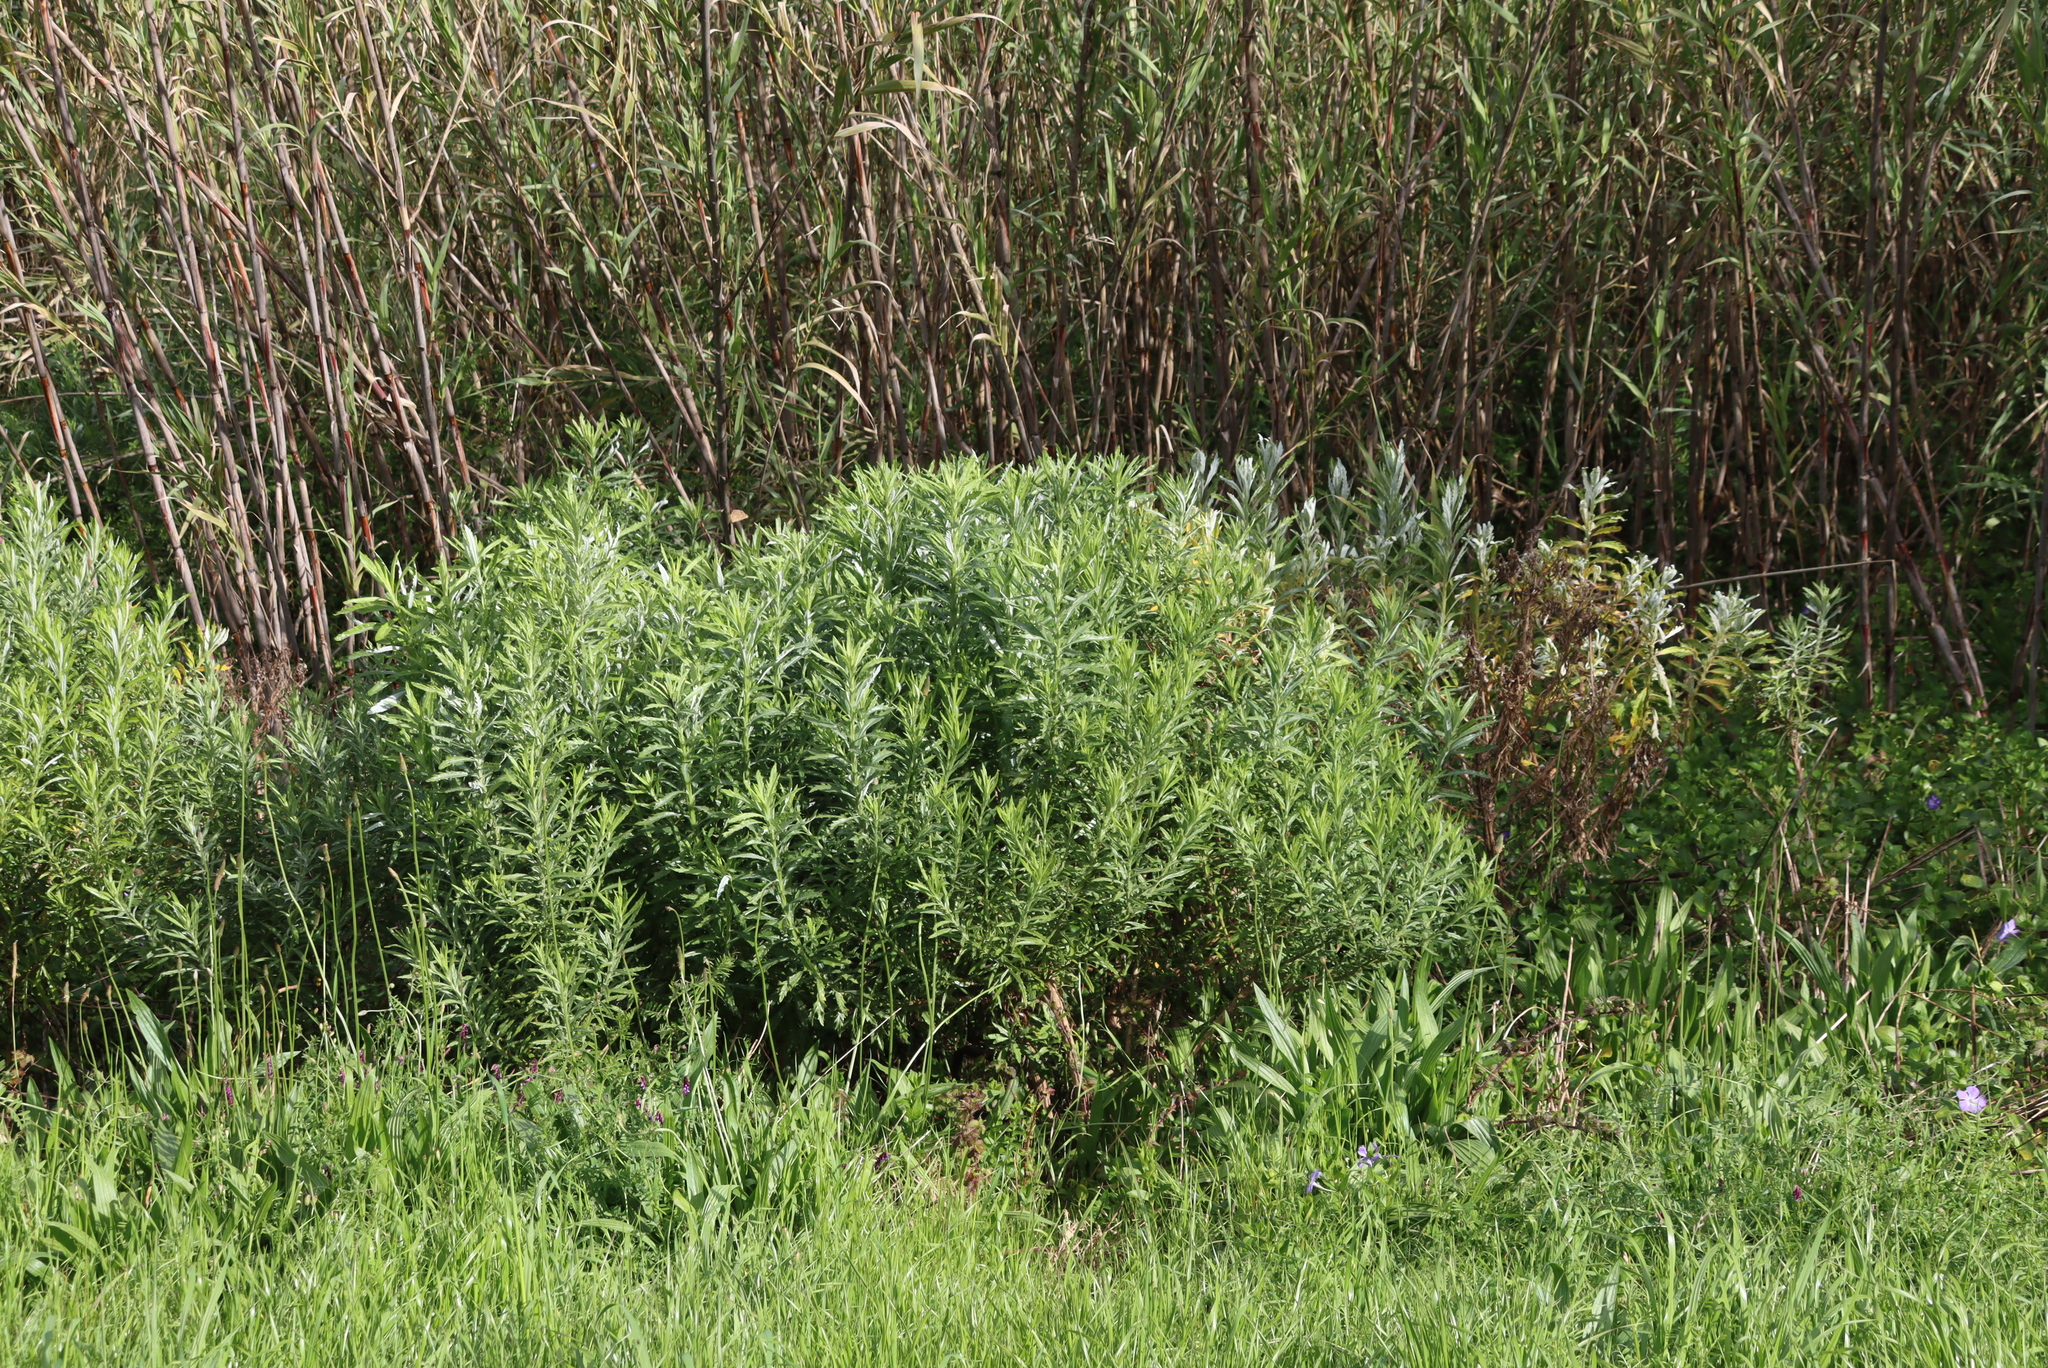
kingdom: Plantae
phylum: Tracheophyta
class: Magnoliopsida
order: Asterales
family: Asteraceae
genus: Senecio
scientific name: Senecio pterophorus
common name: Shoddy ragwort
